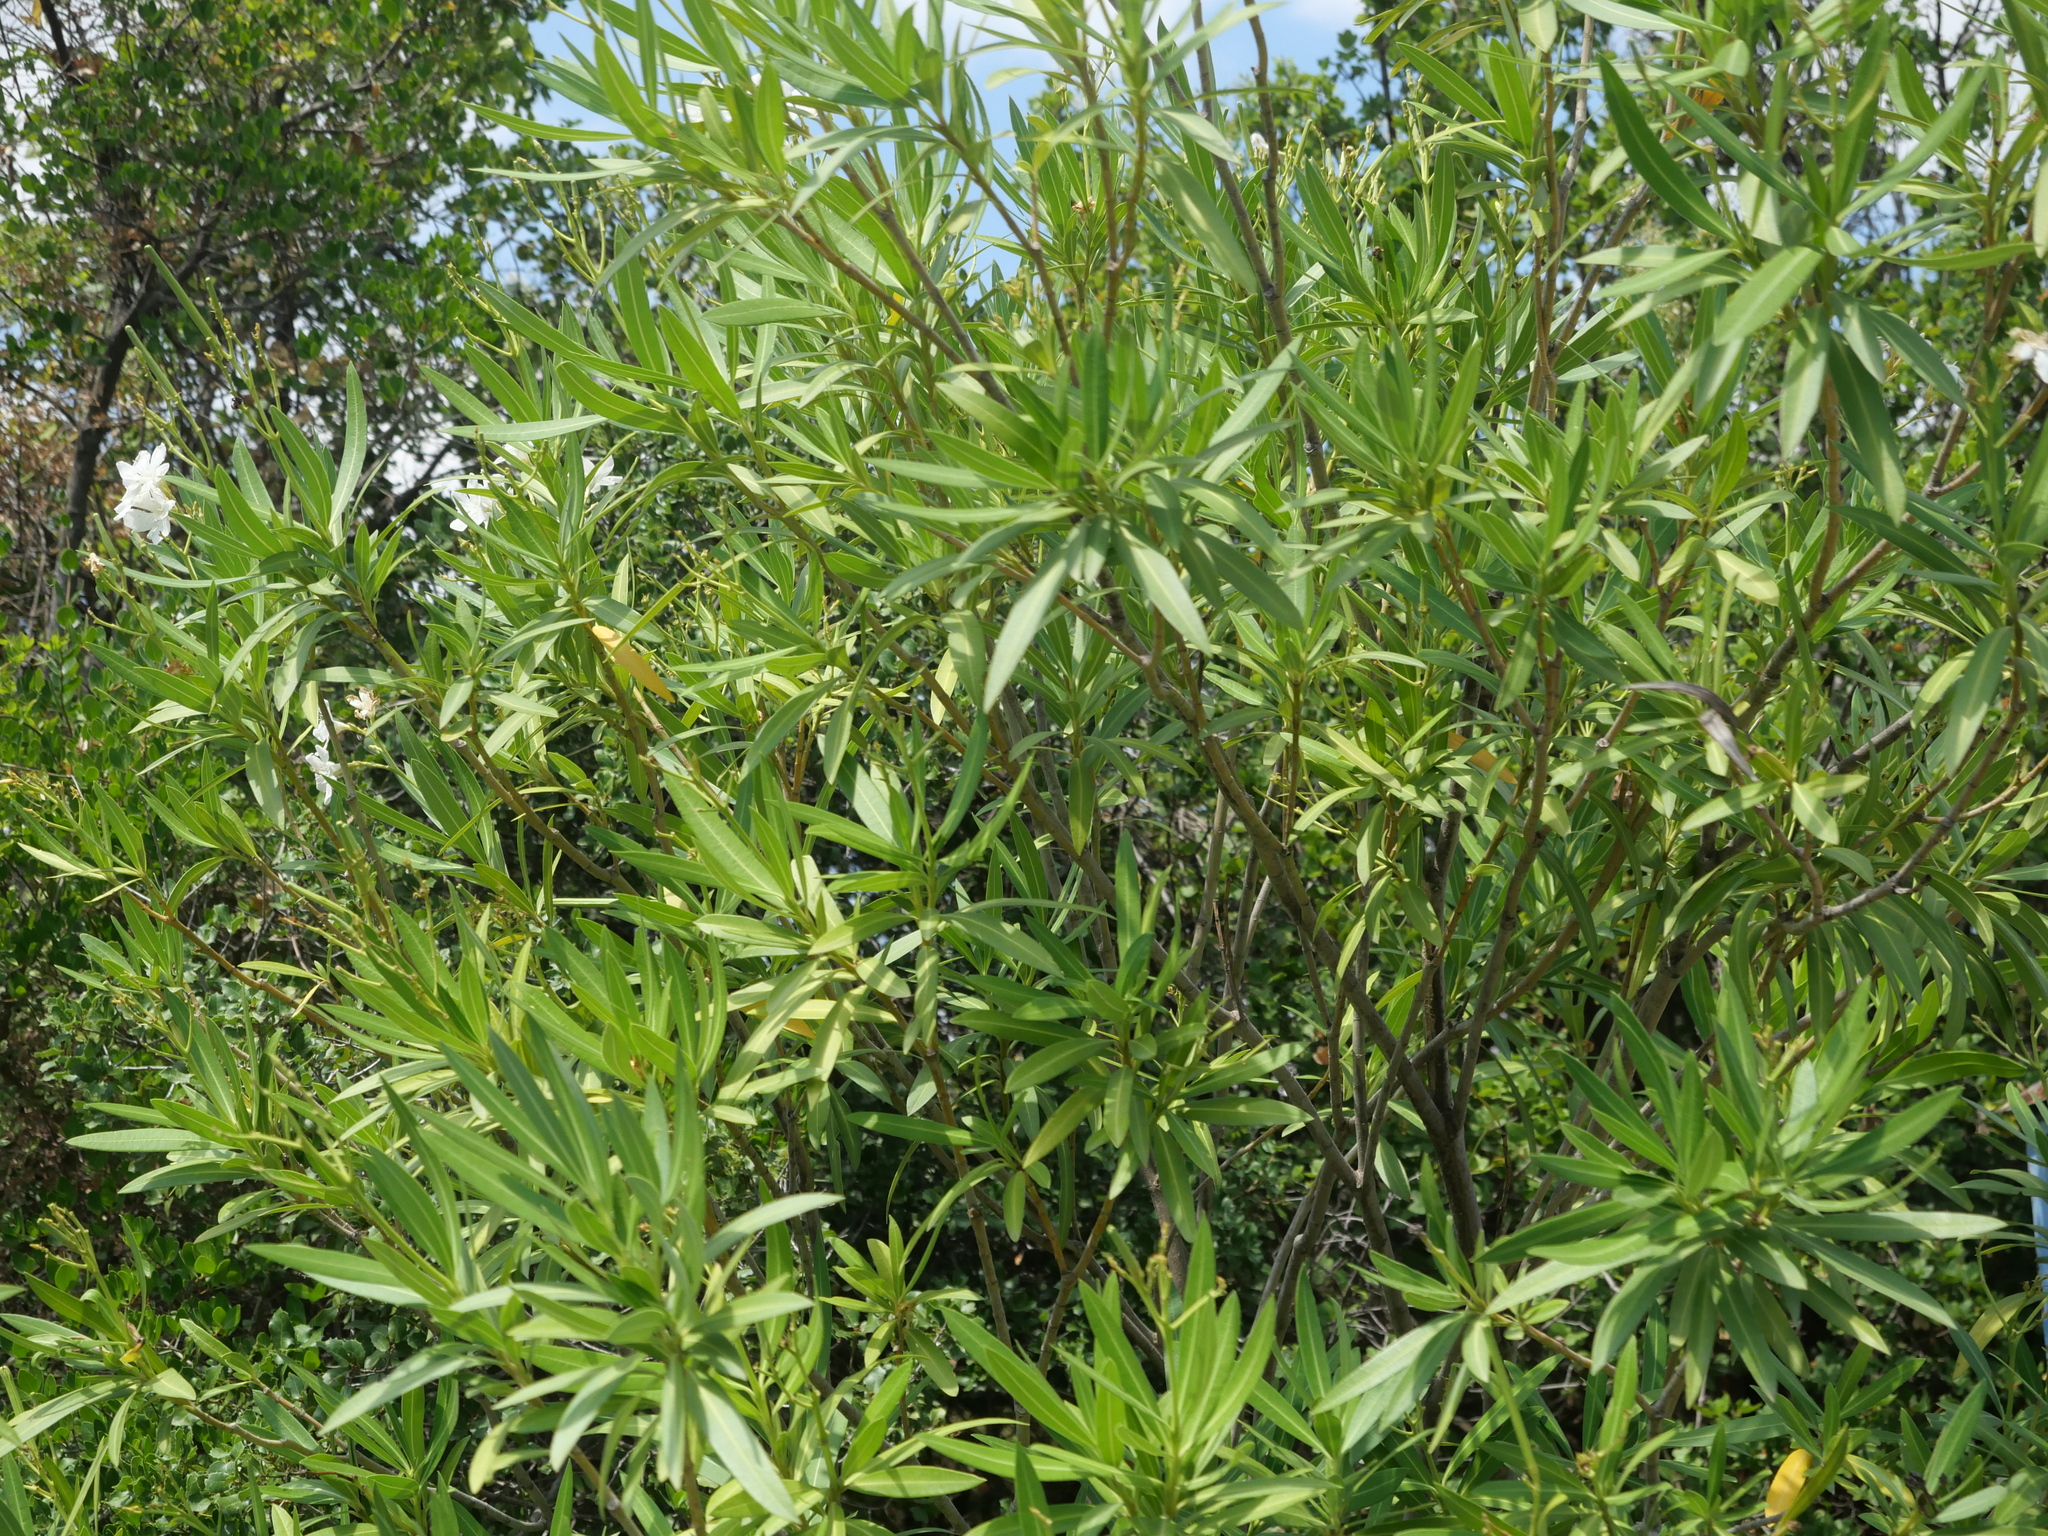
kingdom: Plantae
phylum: Tracheophyta
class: Magnoliopsida
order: Gentianales
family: Apocynaceae
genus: Nerium
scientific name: Nerium oleander
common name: Oleander
